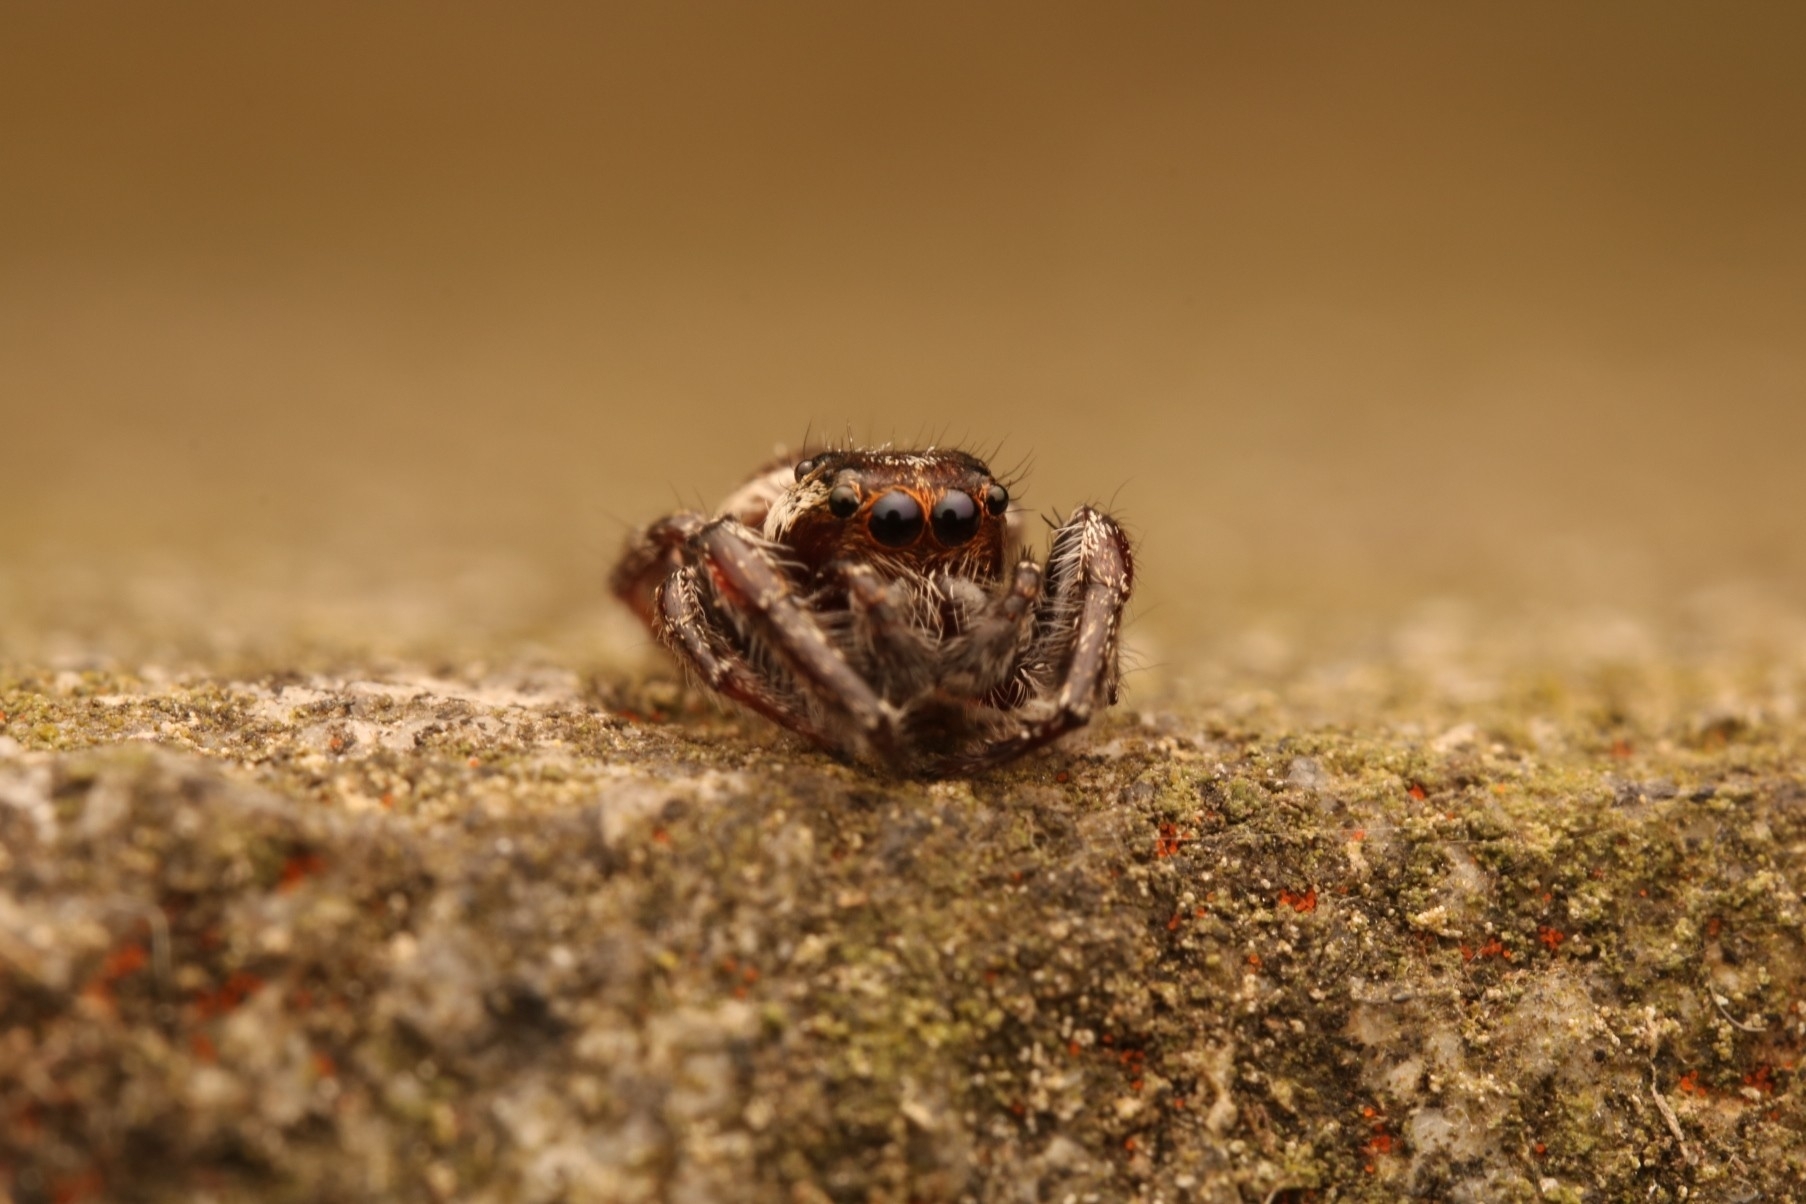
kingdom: Animalia
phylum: Arthropoda
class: Arachnida
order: Araneae
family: Salticidae
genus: Eris
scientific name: Eris militaris
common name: Bronze jumper
